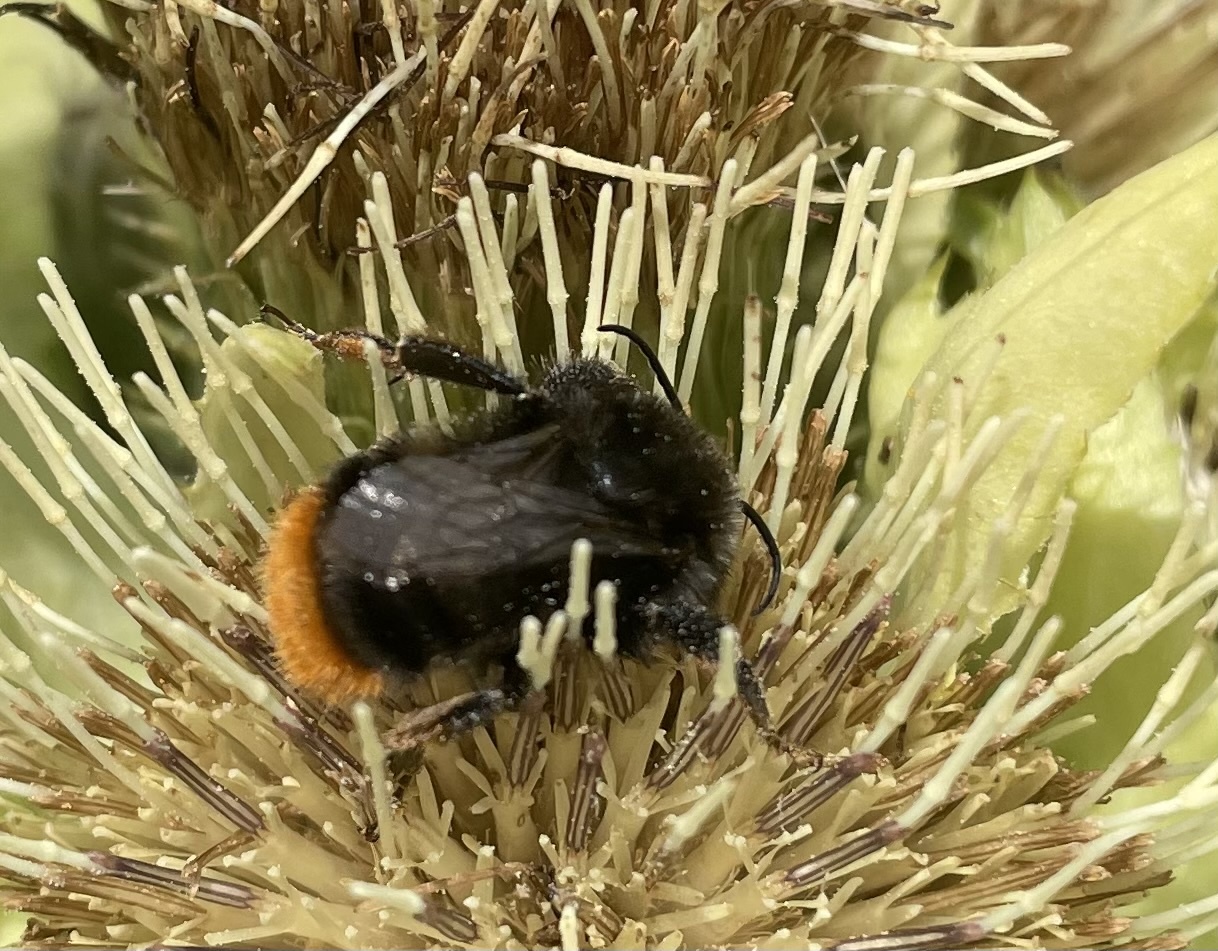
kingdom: Animalia
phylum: Arthropoda
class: Insecta
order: Hymenoptera
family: Apidae
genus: Bombus
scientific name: Bombus lapidarius
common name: Large red-tailed humble-bee
